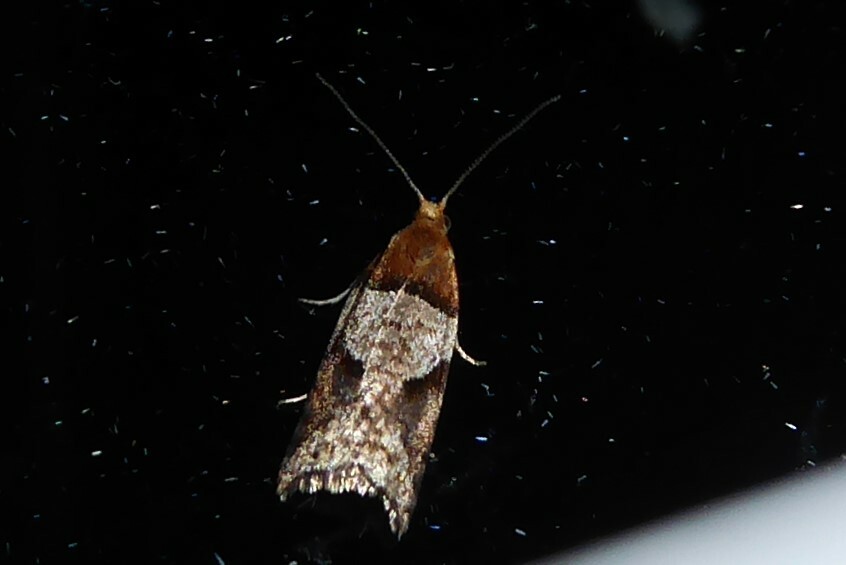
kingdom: Animalia
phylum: Arthropoda
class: Insecta
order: Lepidoptera
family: Tortricidae
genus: Epichorista
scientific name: Epichorista
